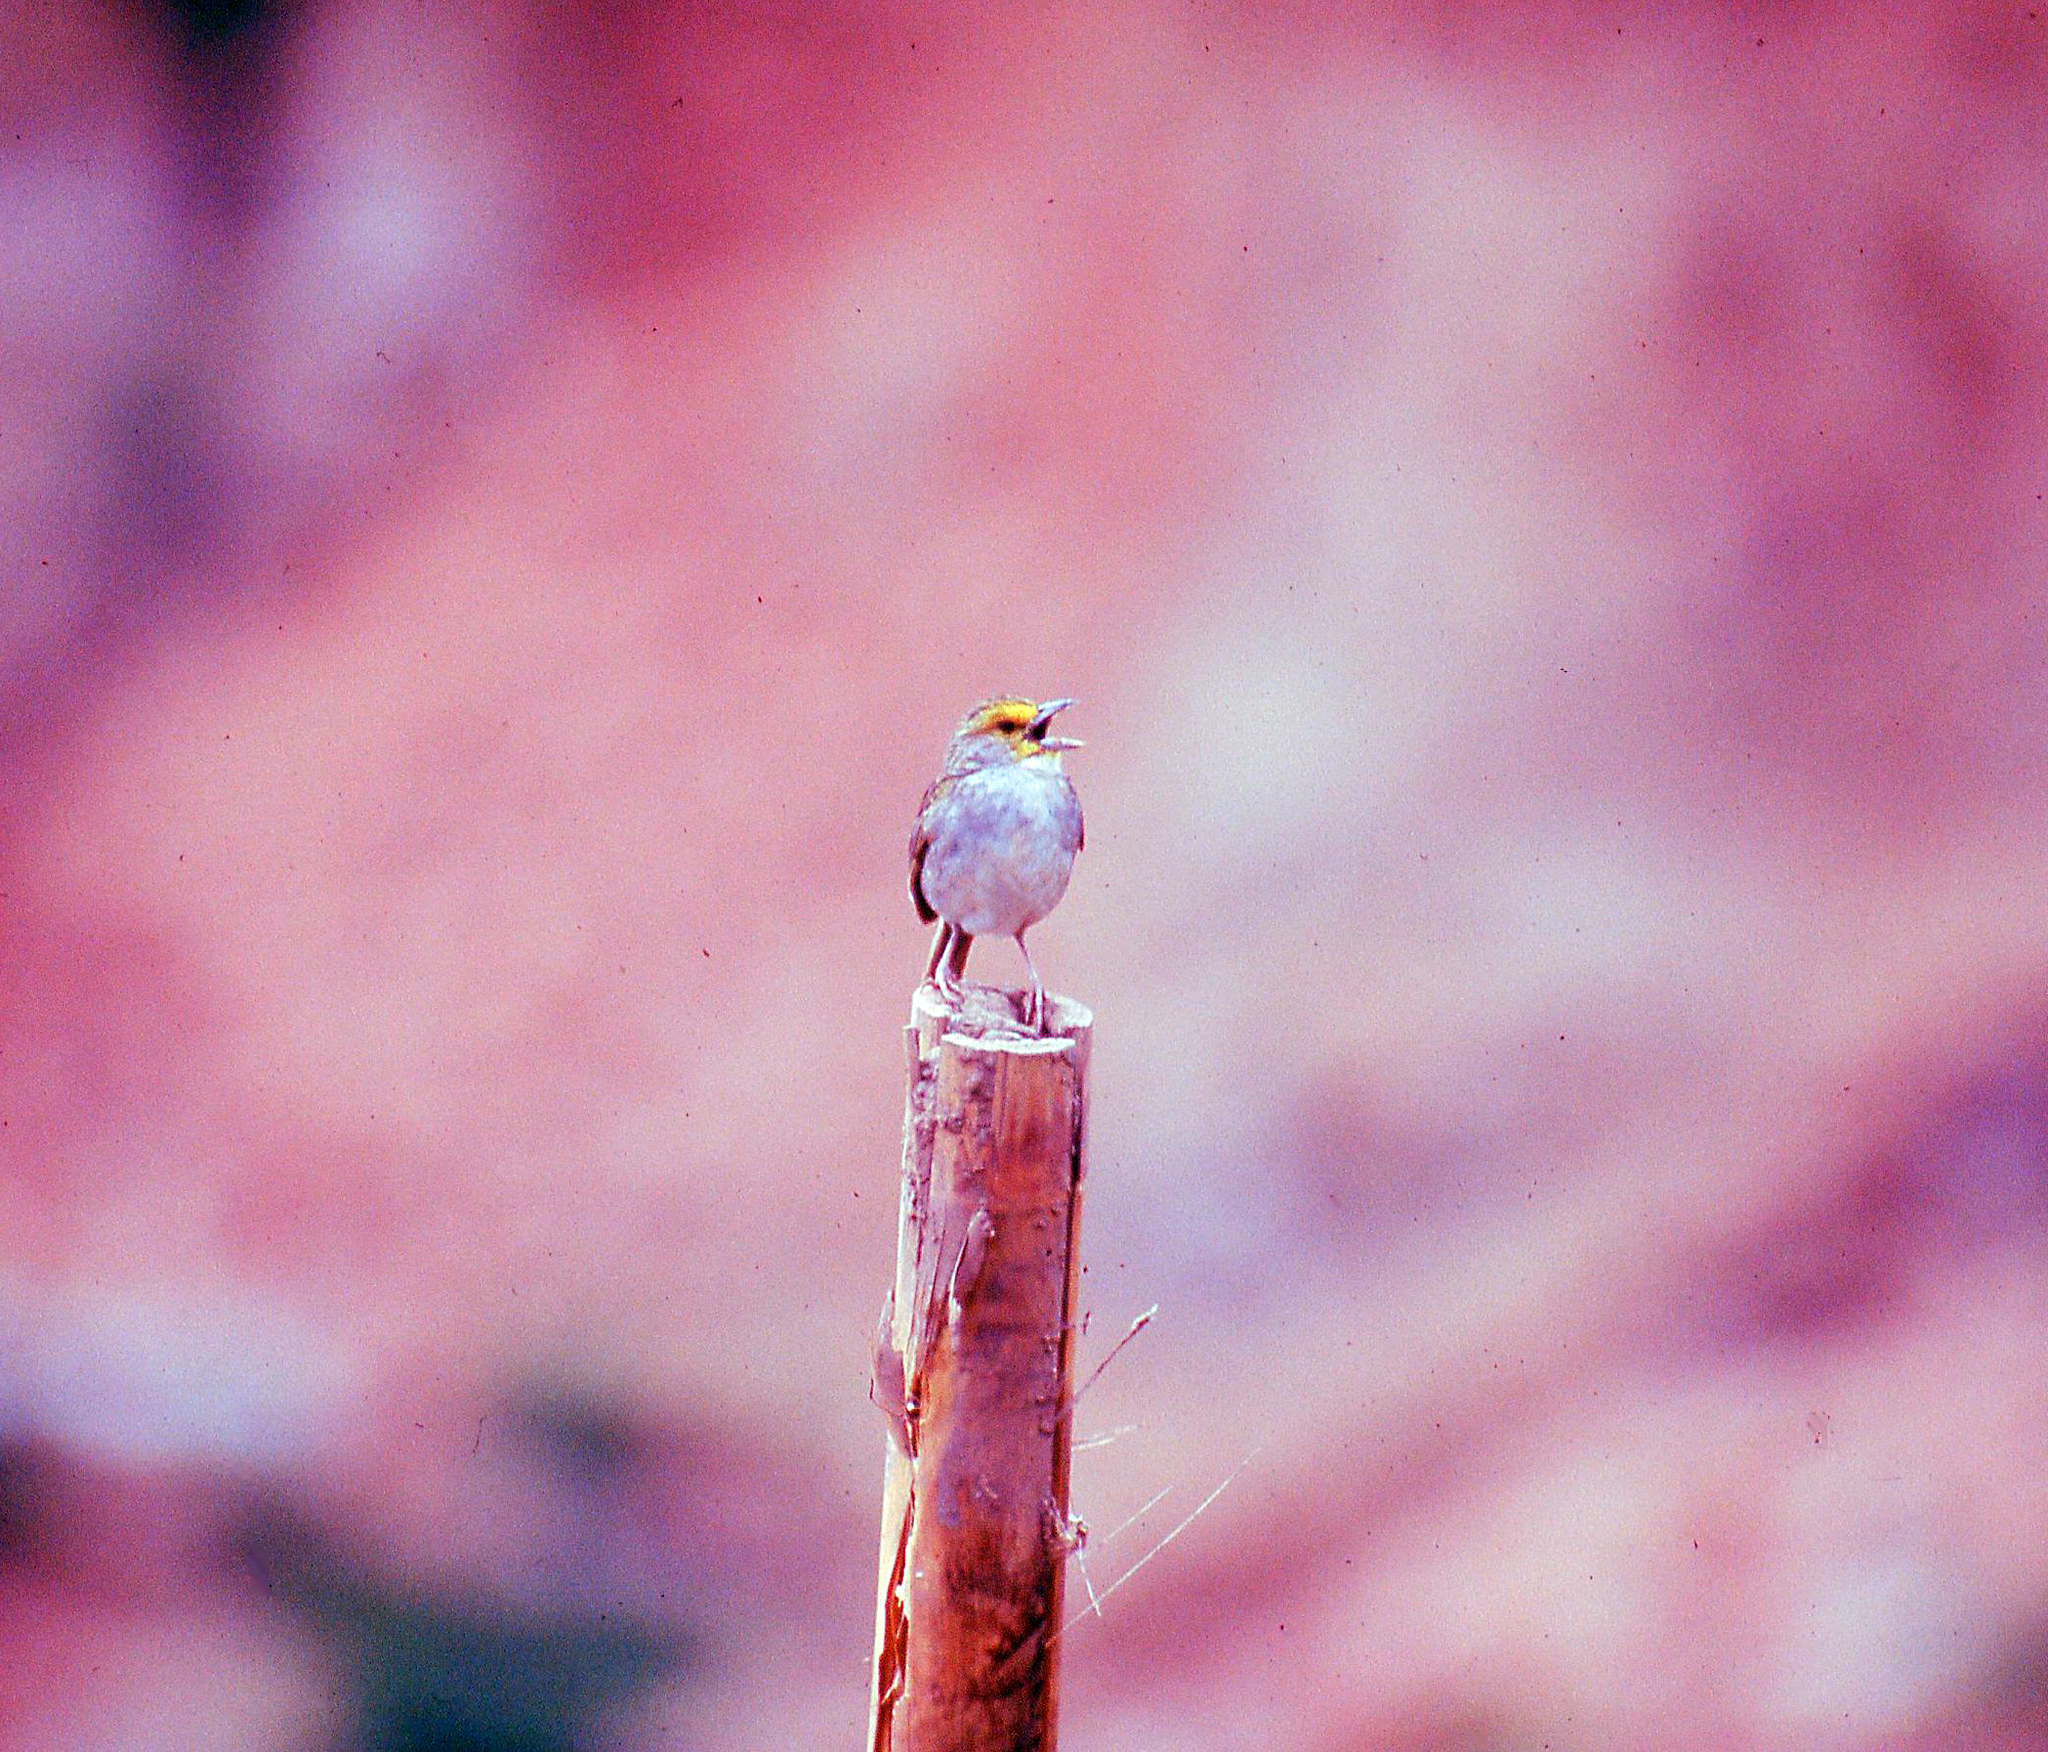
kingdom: Animalia
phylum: Chordata
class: Aves
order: Passeriformes
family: Passerellidae
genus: Ammodramus
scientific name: Ammodramus aurifrons
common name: Yellow-browed sparrow
